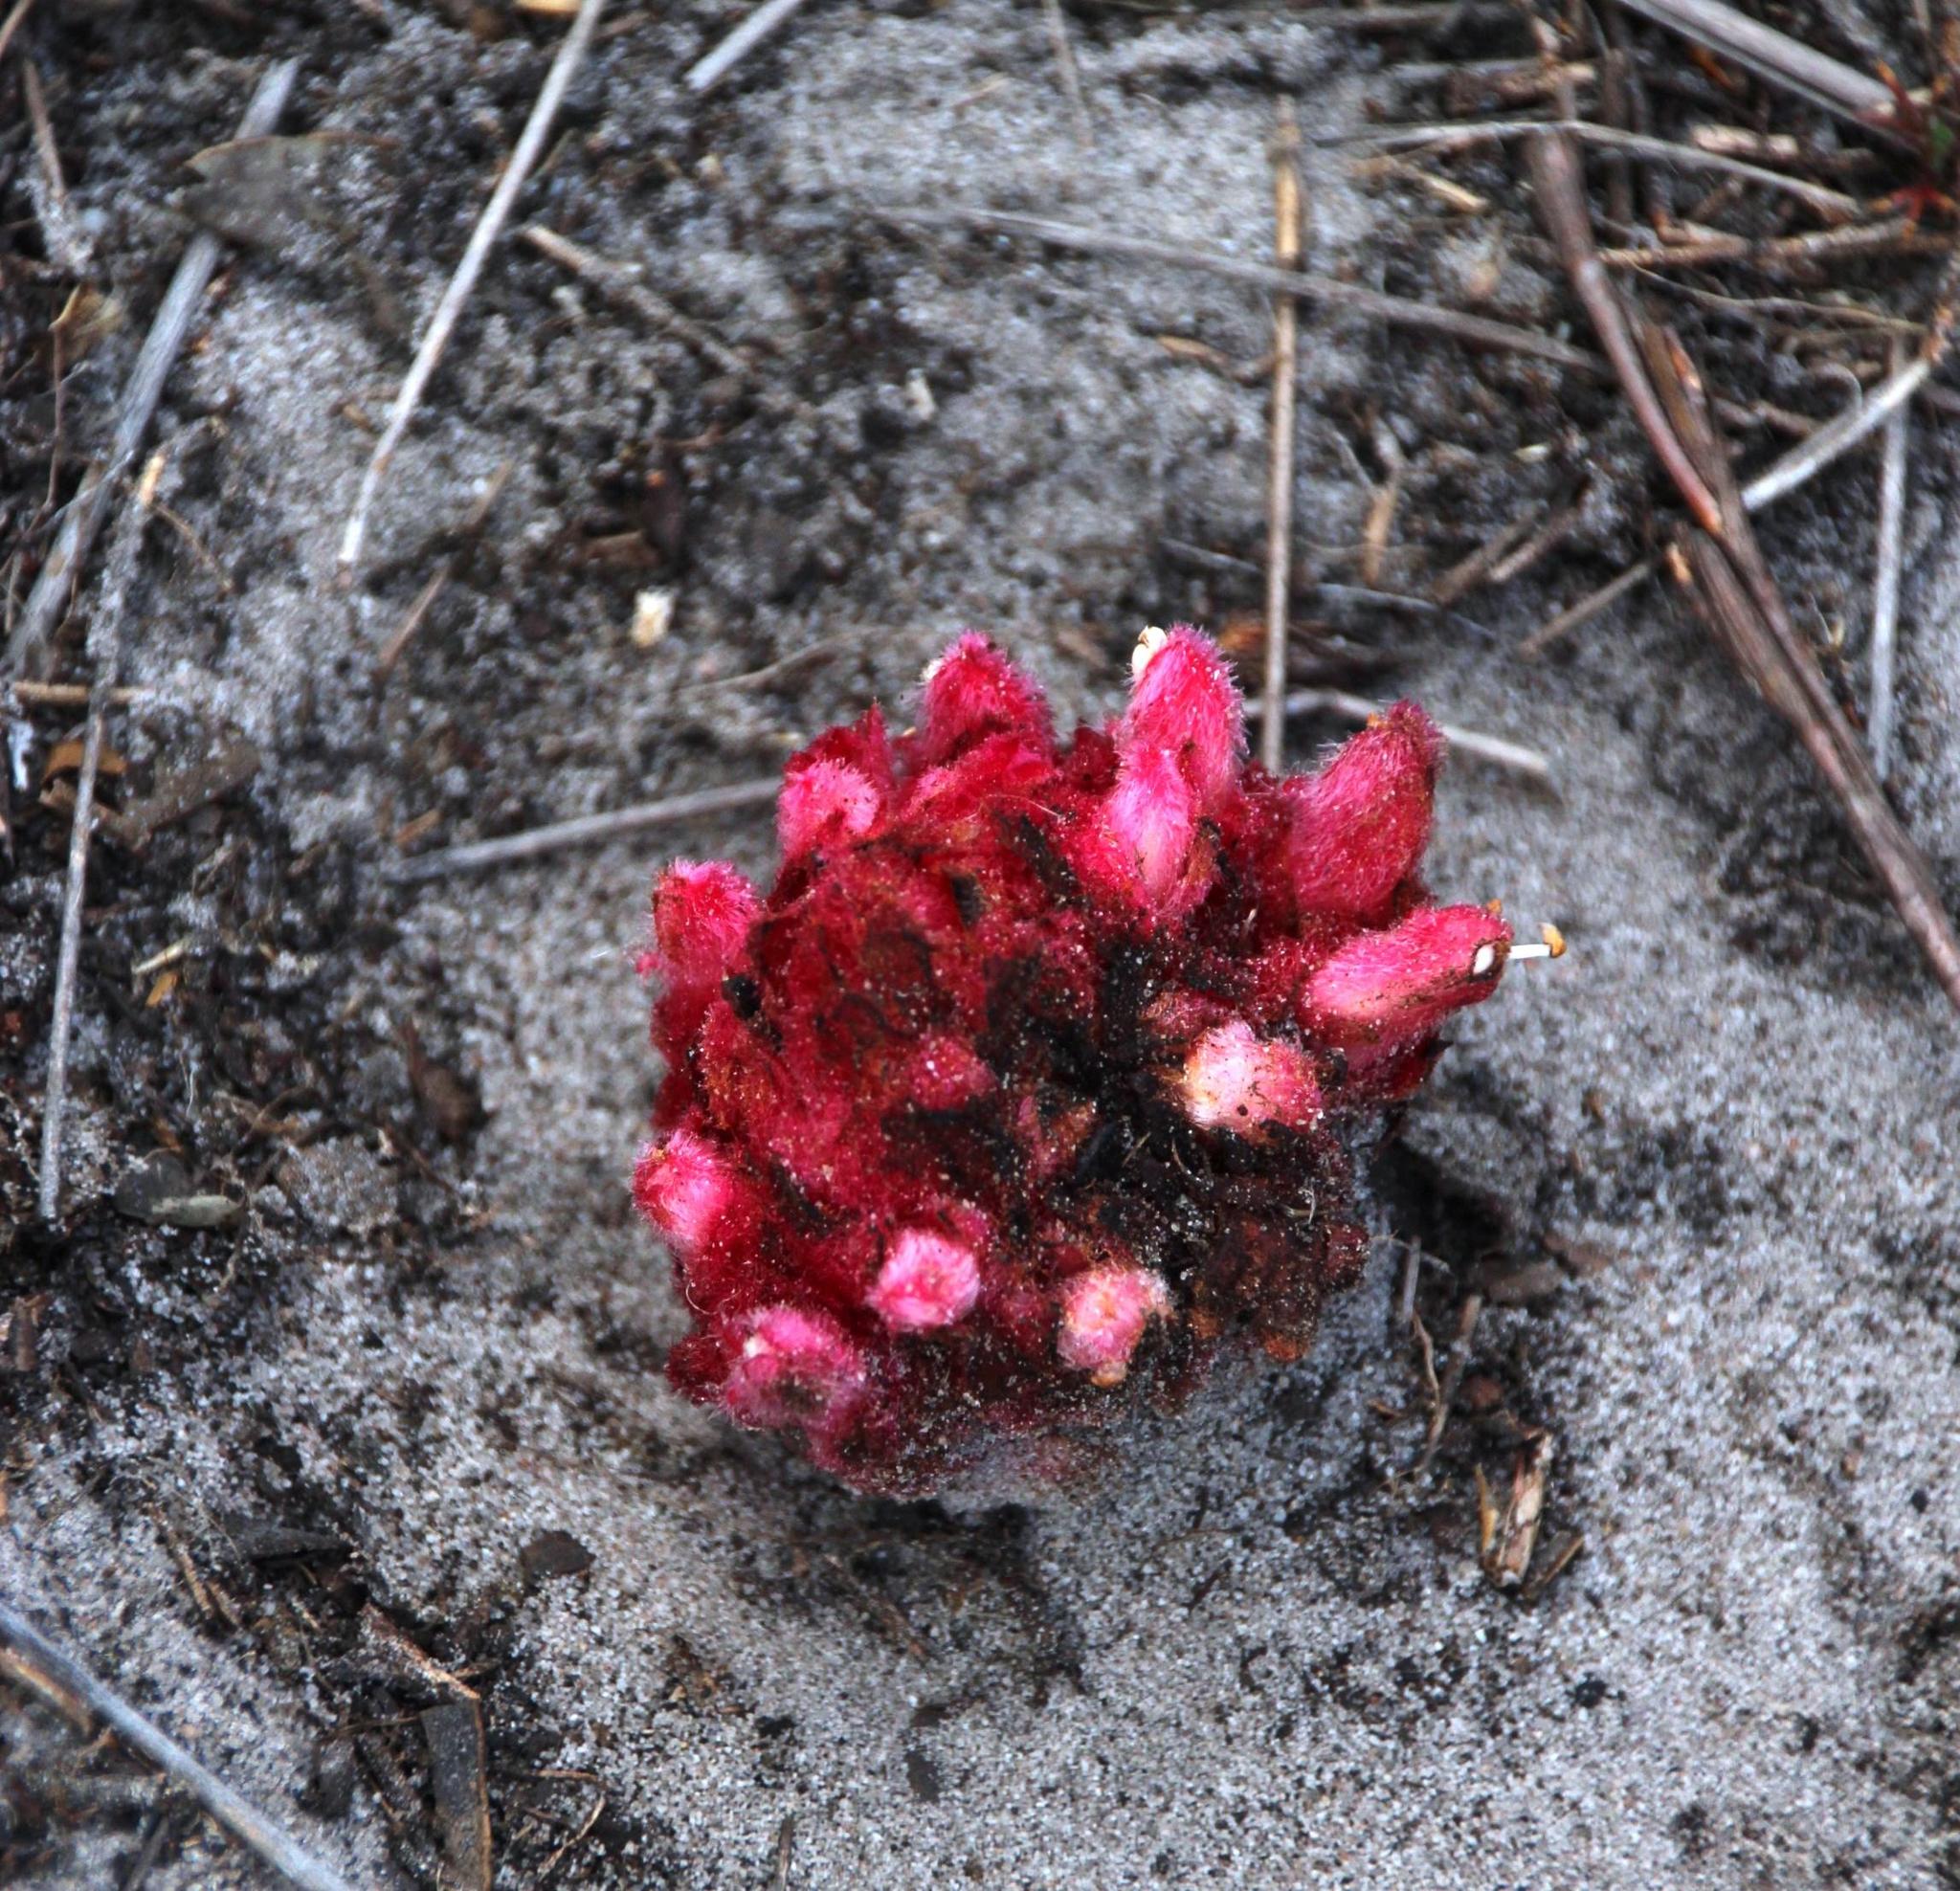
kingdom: Plantae
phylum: Tracheophyta
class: Magnoliopsida
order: Lamiales
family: Orobanchaceae
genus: Hyobanche
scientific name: Hyobanche sanguinea
